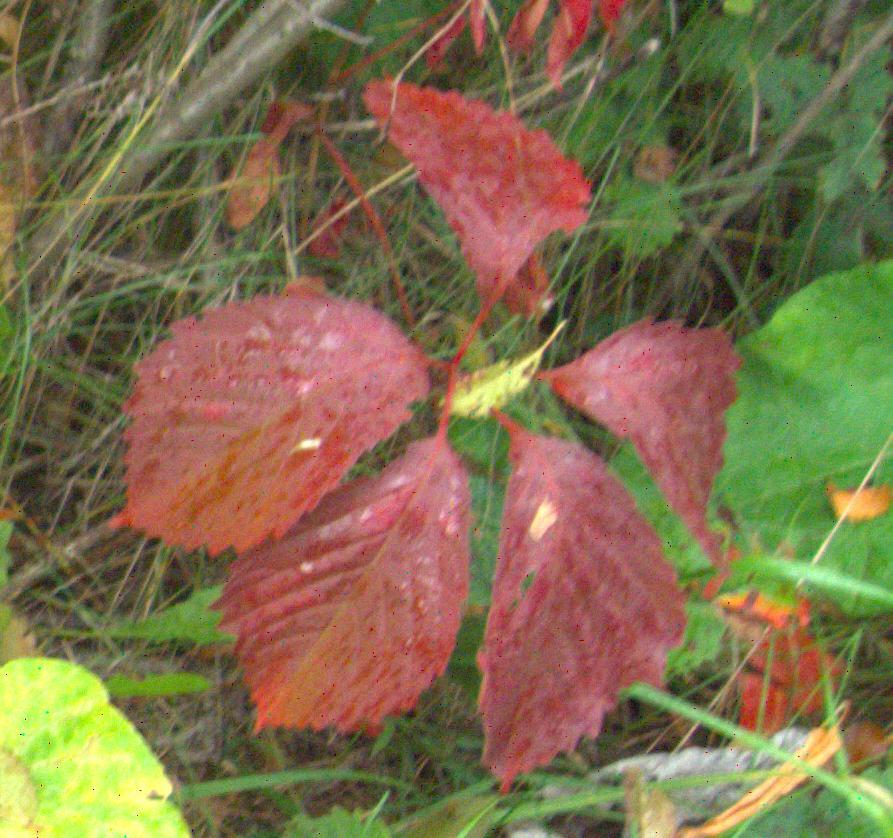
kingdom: Plantae
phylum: Tracheophyta
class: Magnoliopsida
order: Vitales
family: Vitaceae
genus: Parthenocissus
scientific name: Parthenocissus inserta
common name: False virginia-creeper
